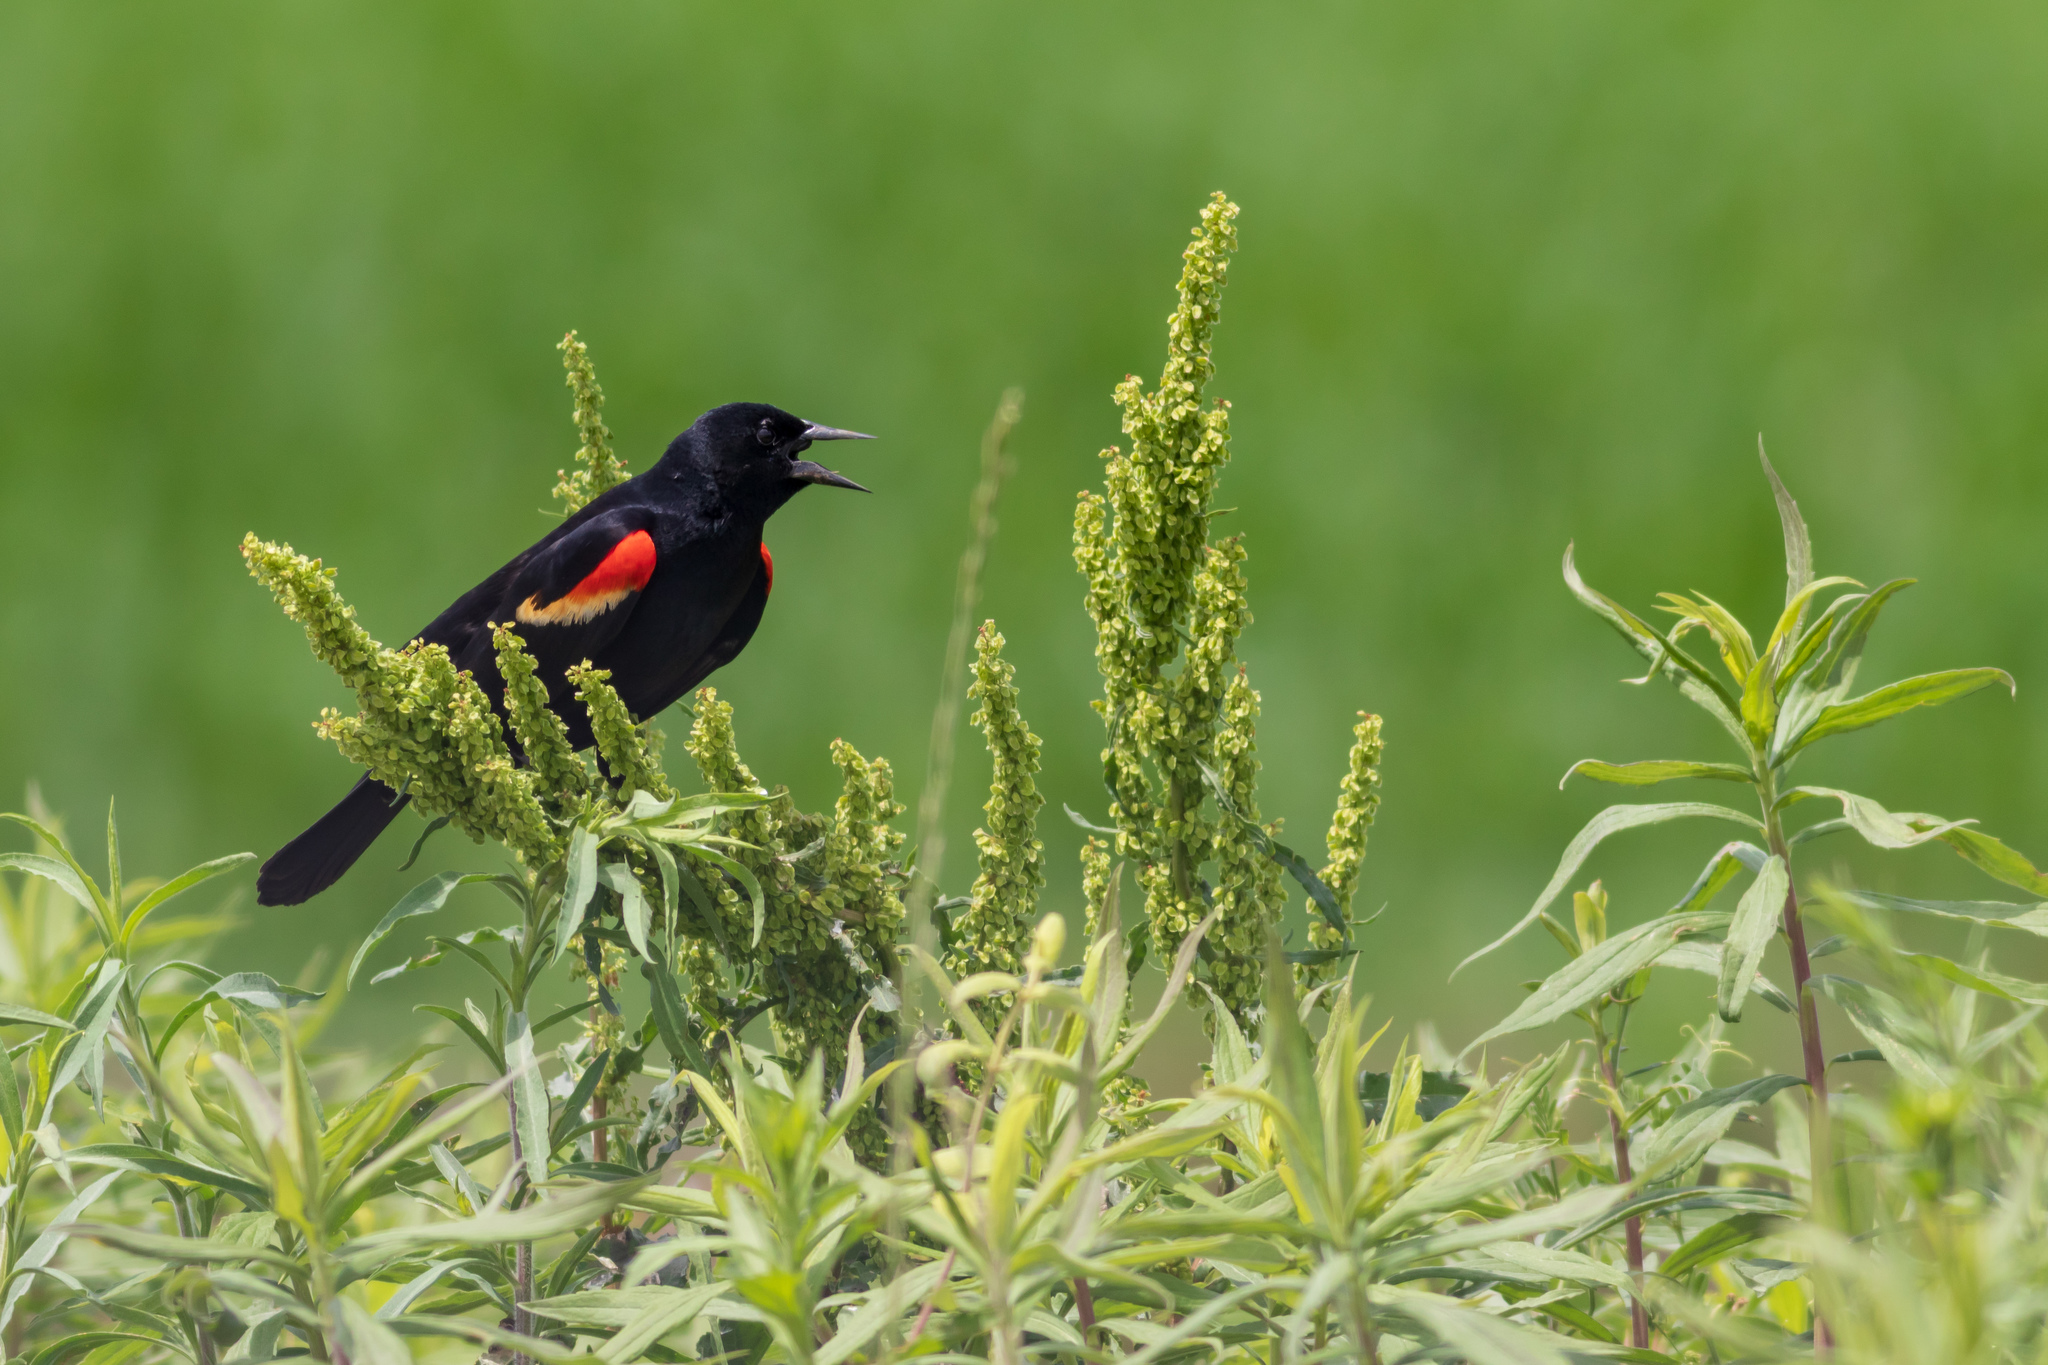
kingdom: Animalia
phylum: Chordata
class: Aves
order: Passeriformes
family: Icteridae
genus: Agelaius
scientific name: Agelaius phoeniceus
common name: Red-winged blackbird
